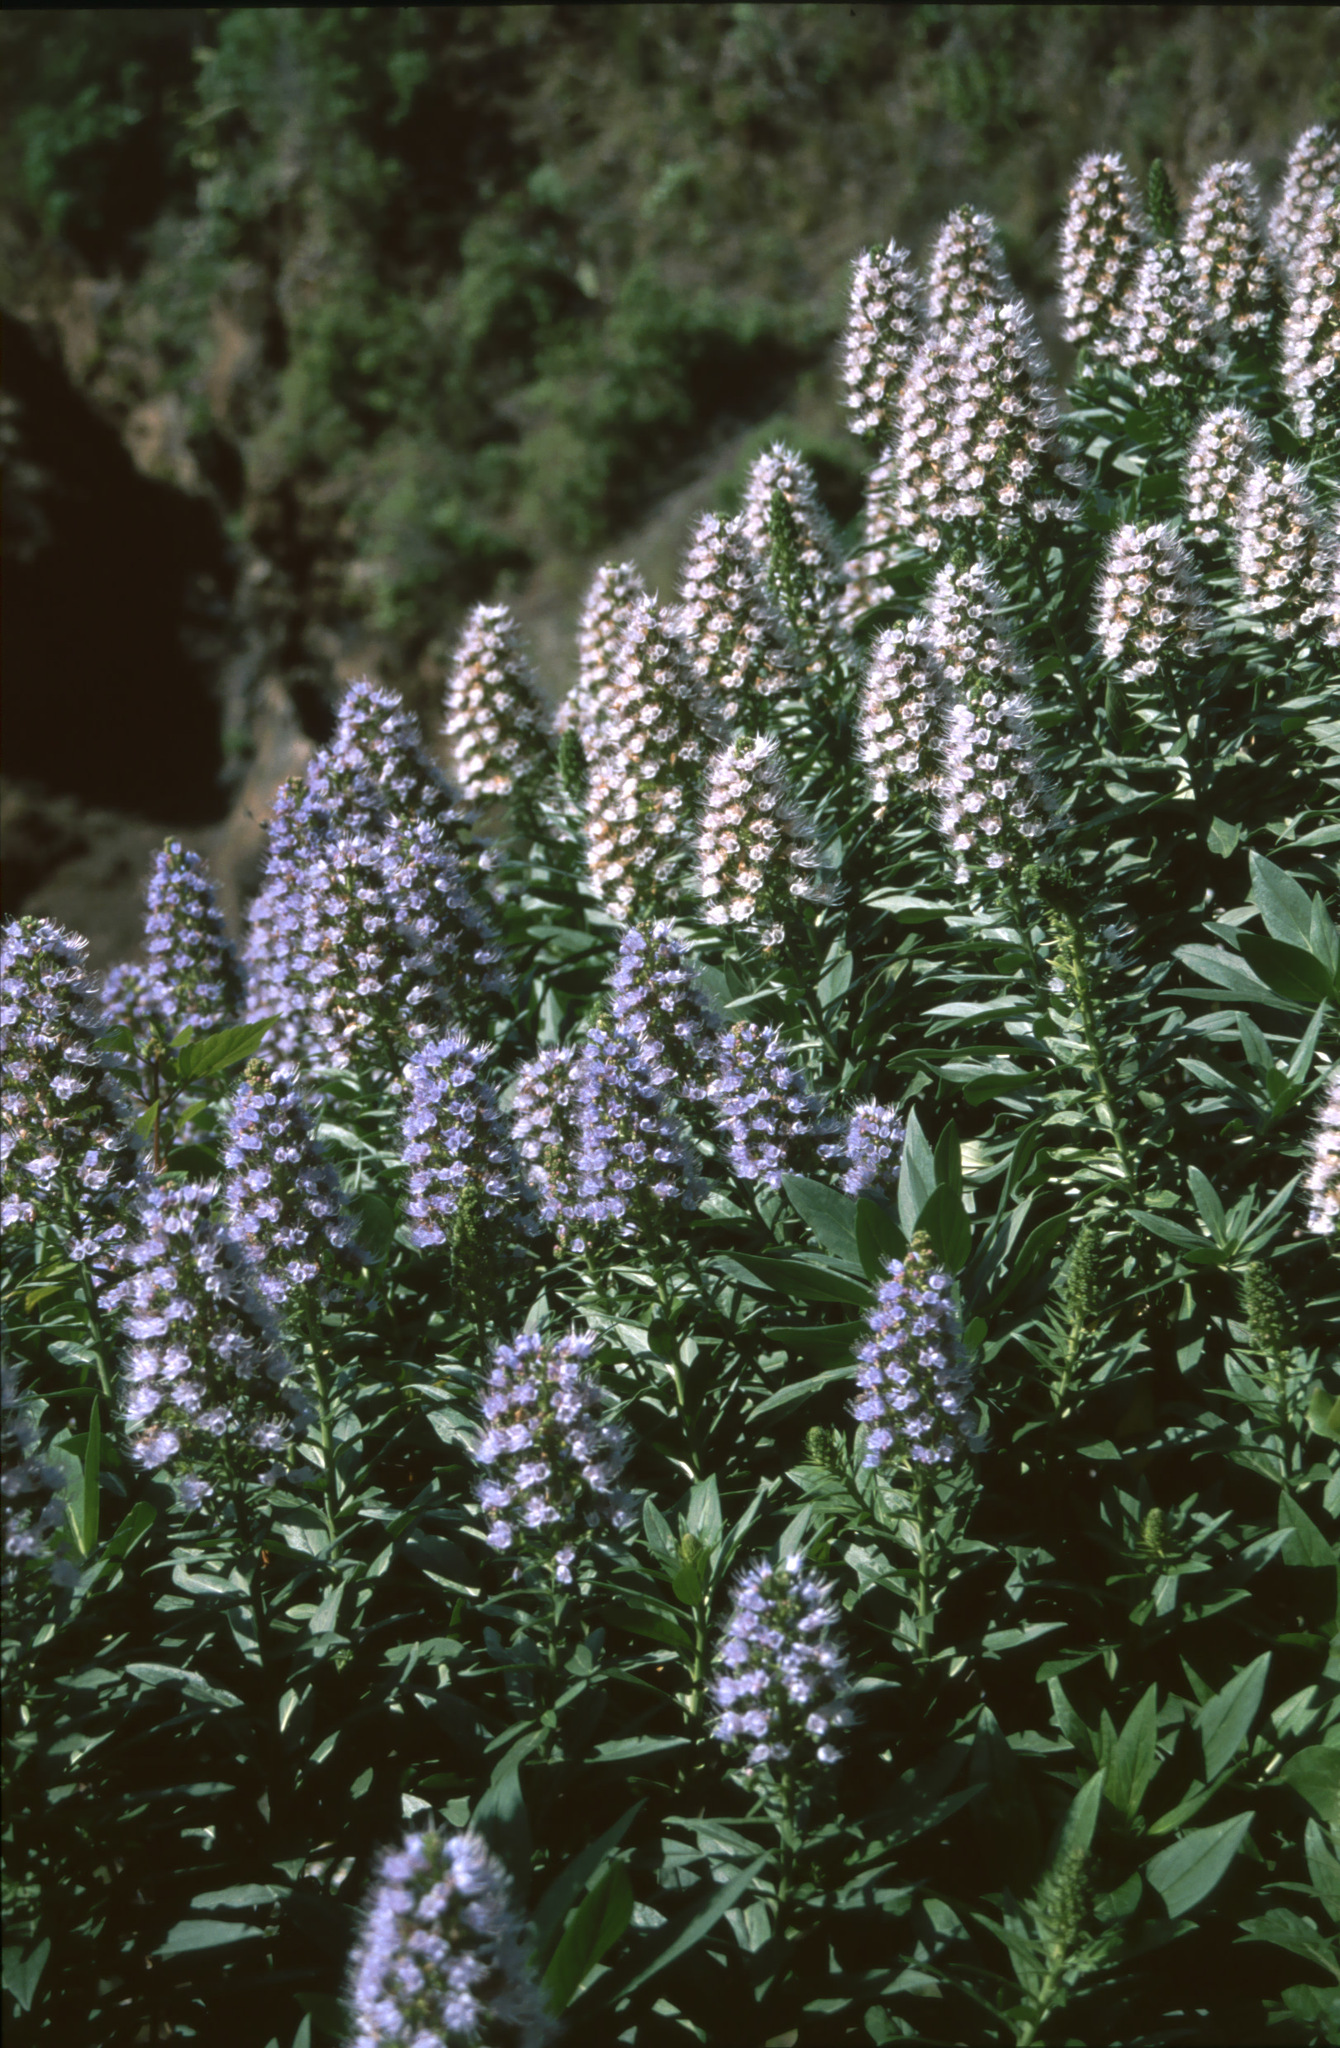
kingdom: Plantae
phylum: Tracheophyta
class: Magnoliopsida
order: Boraginales
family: Boraginaceae
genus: Echium
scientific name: Echium webbii
